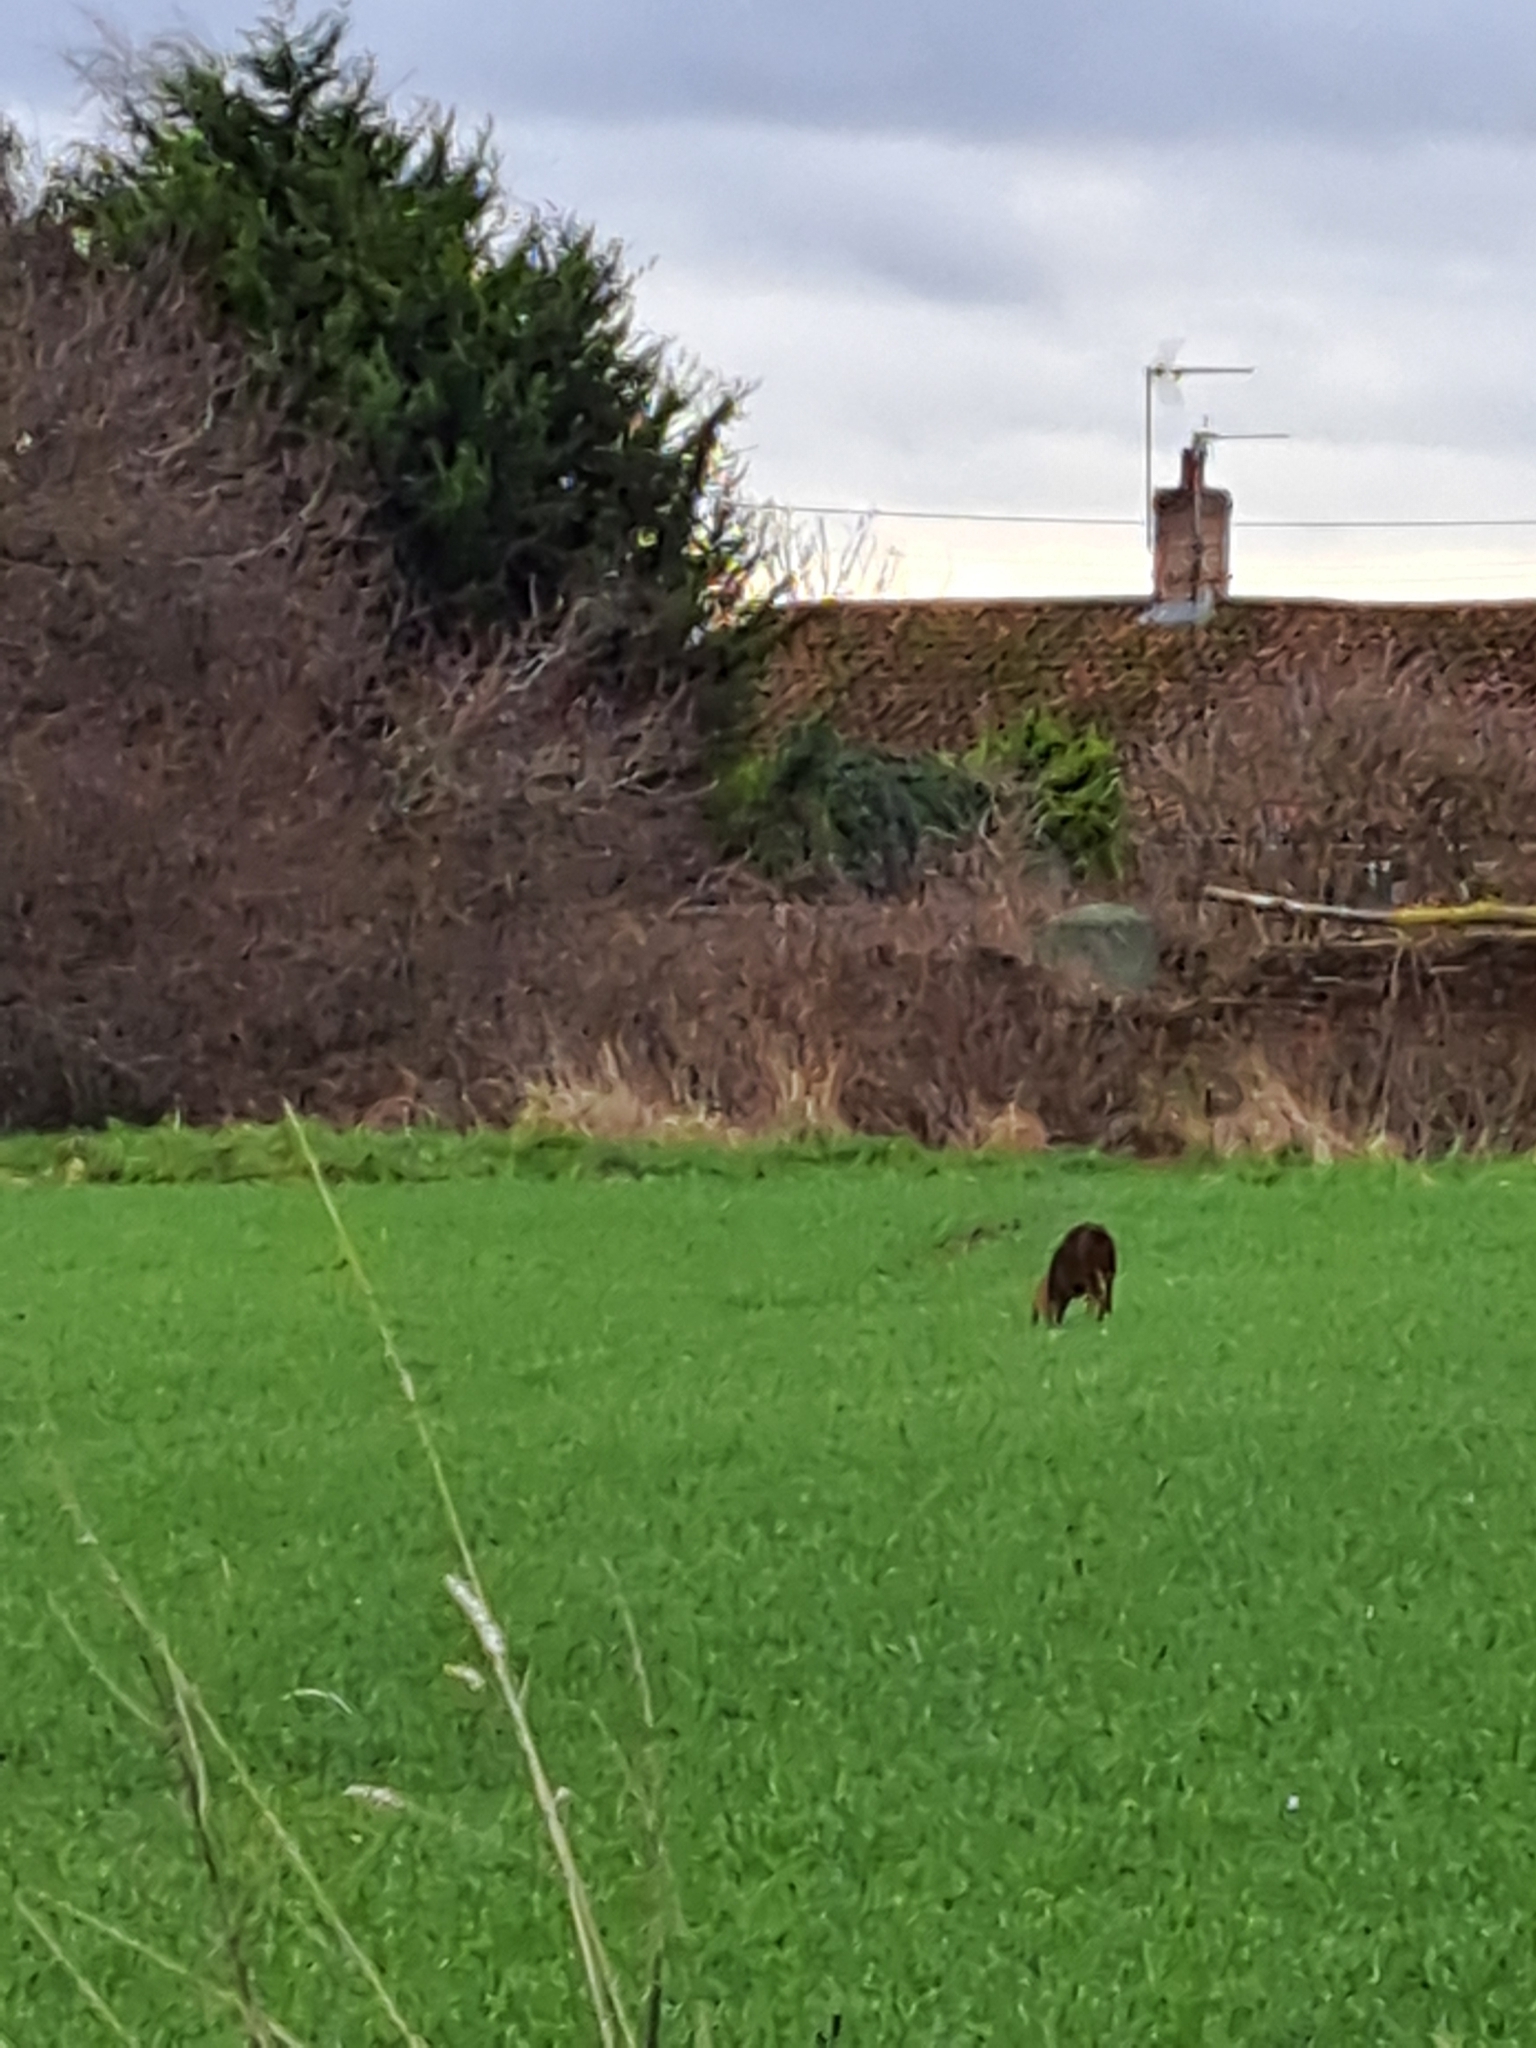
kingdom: Animalia
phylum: Chordata
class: Mammalia
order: Artiodactyla
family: Cervidae
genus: Muntiacus
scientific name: Muntiacus reevesi
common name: Reeves' muntjac
